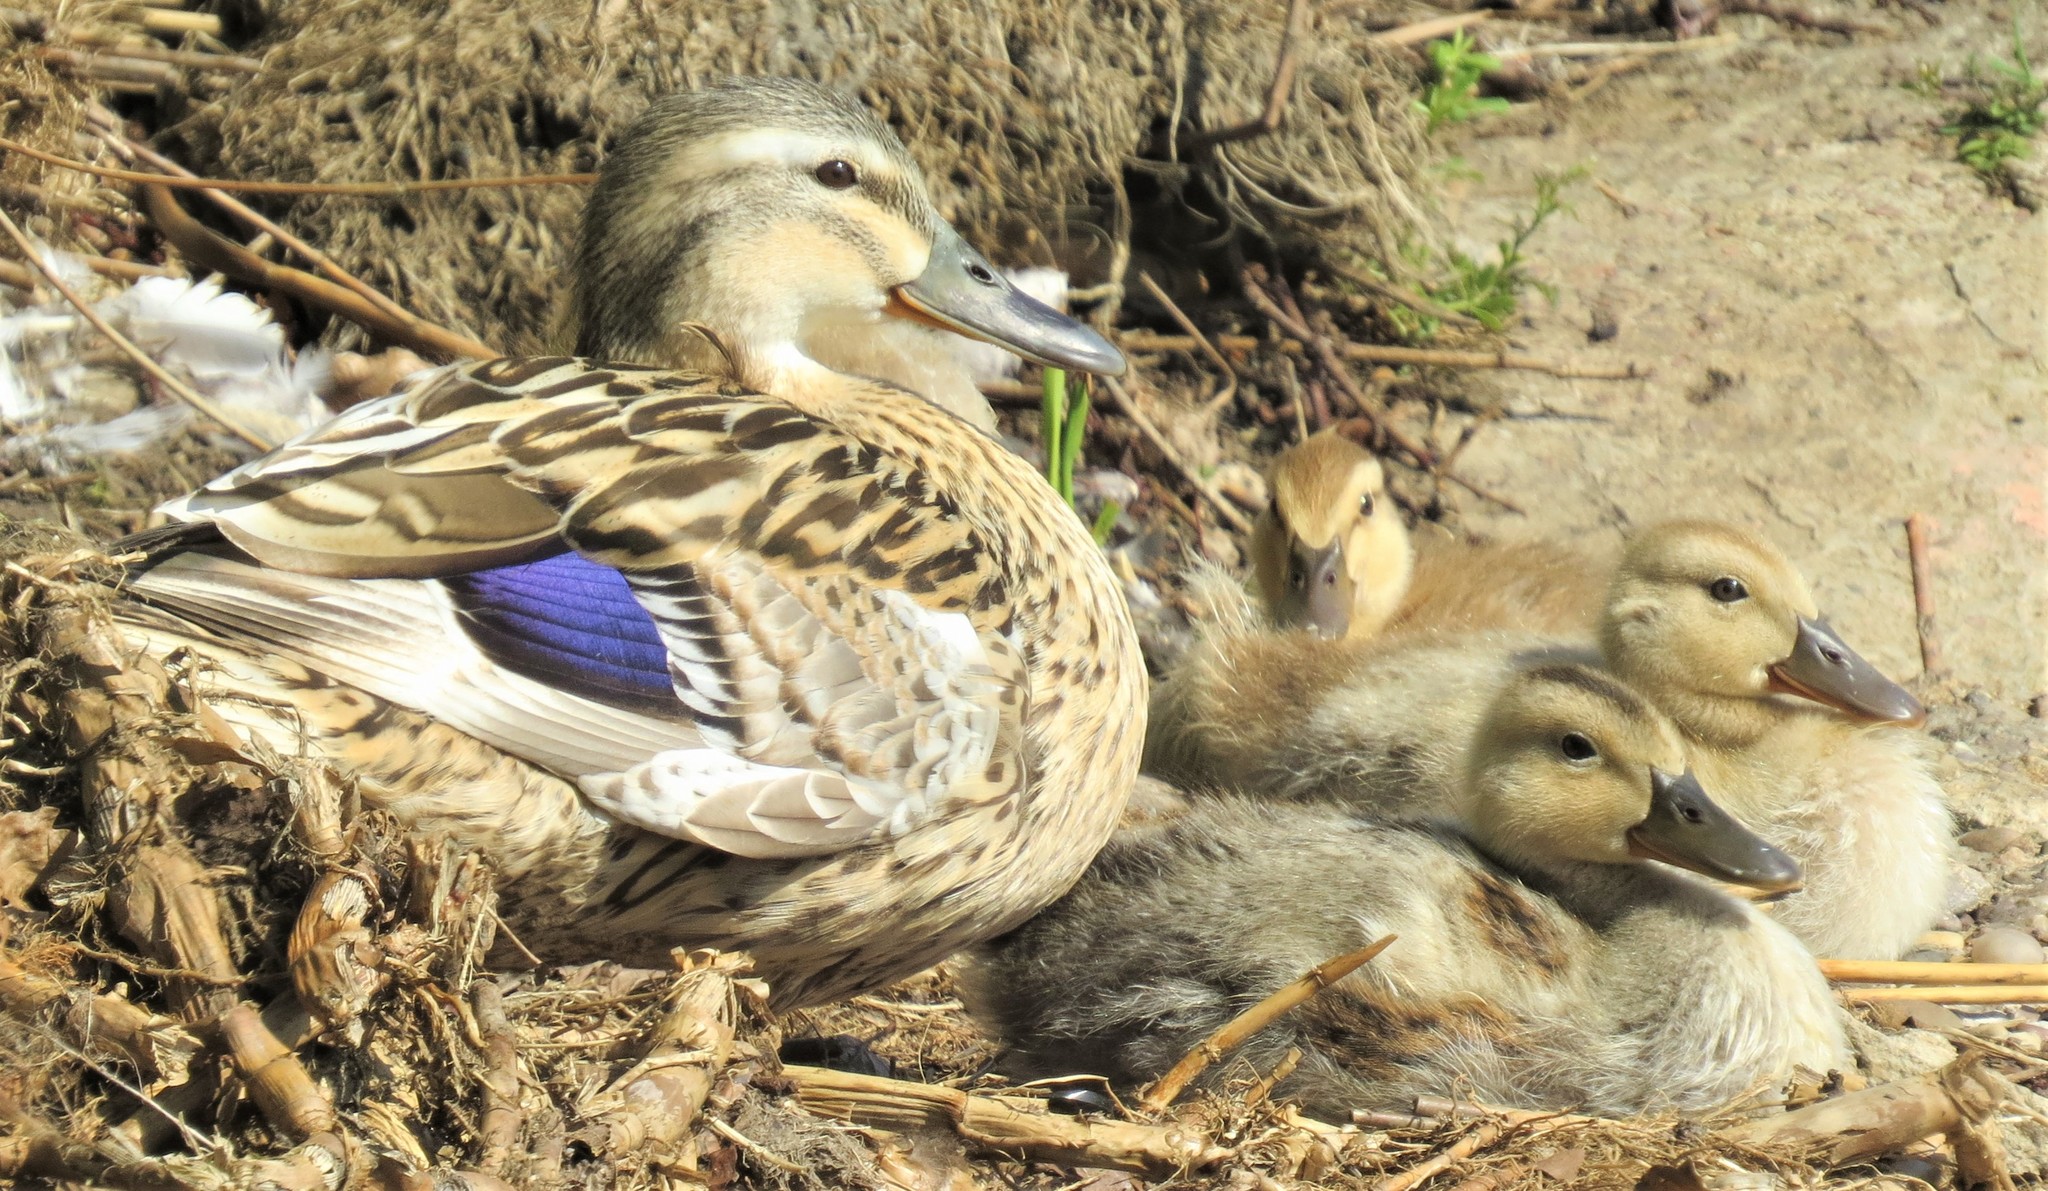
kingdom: Animalia
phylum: Chordata
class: Aves
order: Anseriformes
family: Anatidae
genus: Anas
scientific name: Anas platyrhynchos
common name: Mallard
